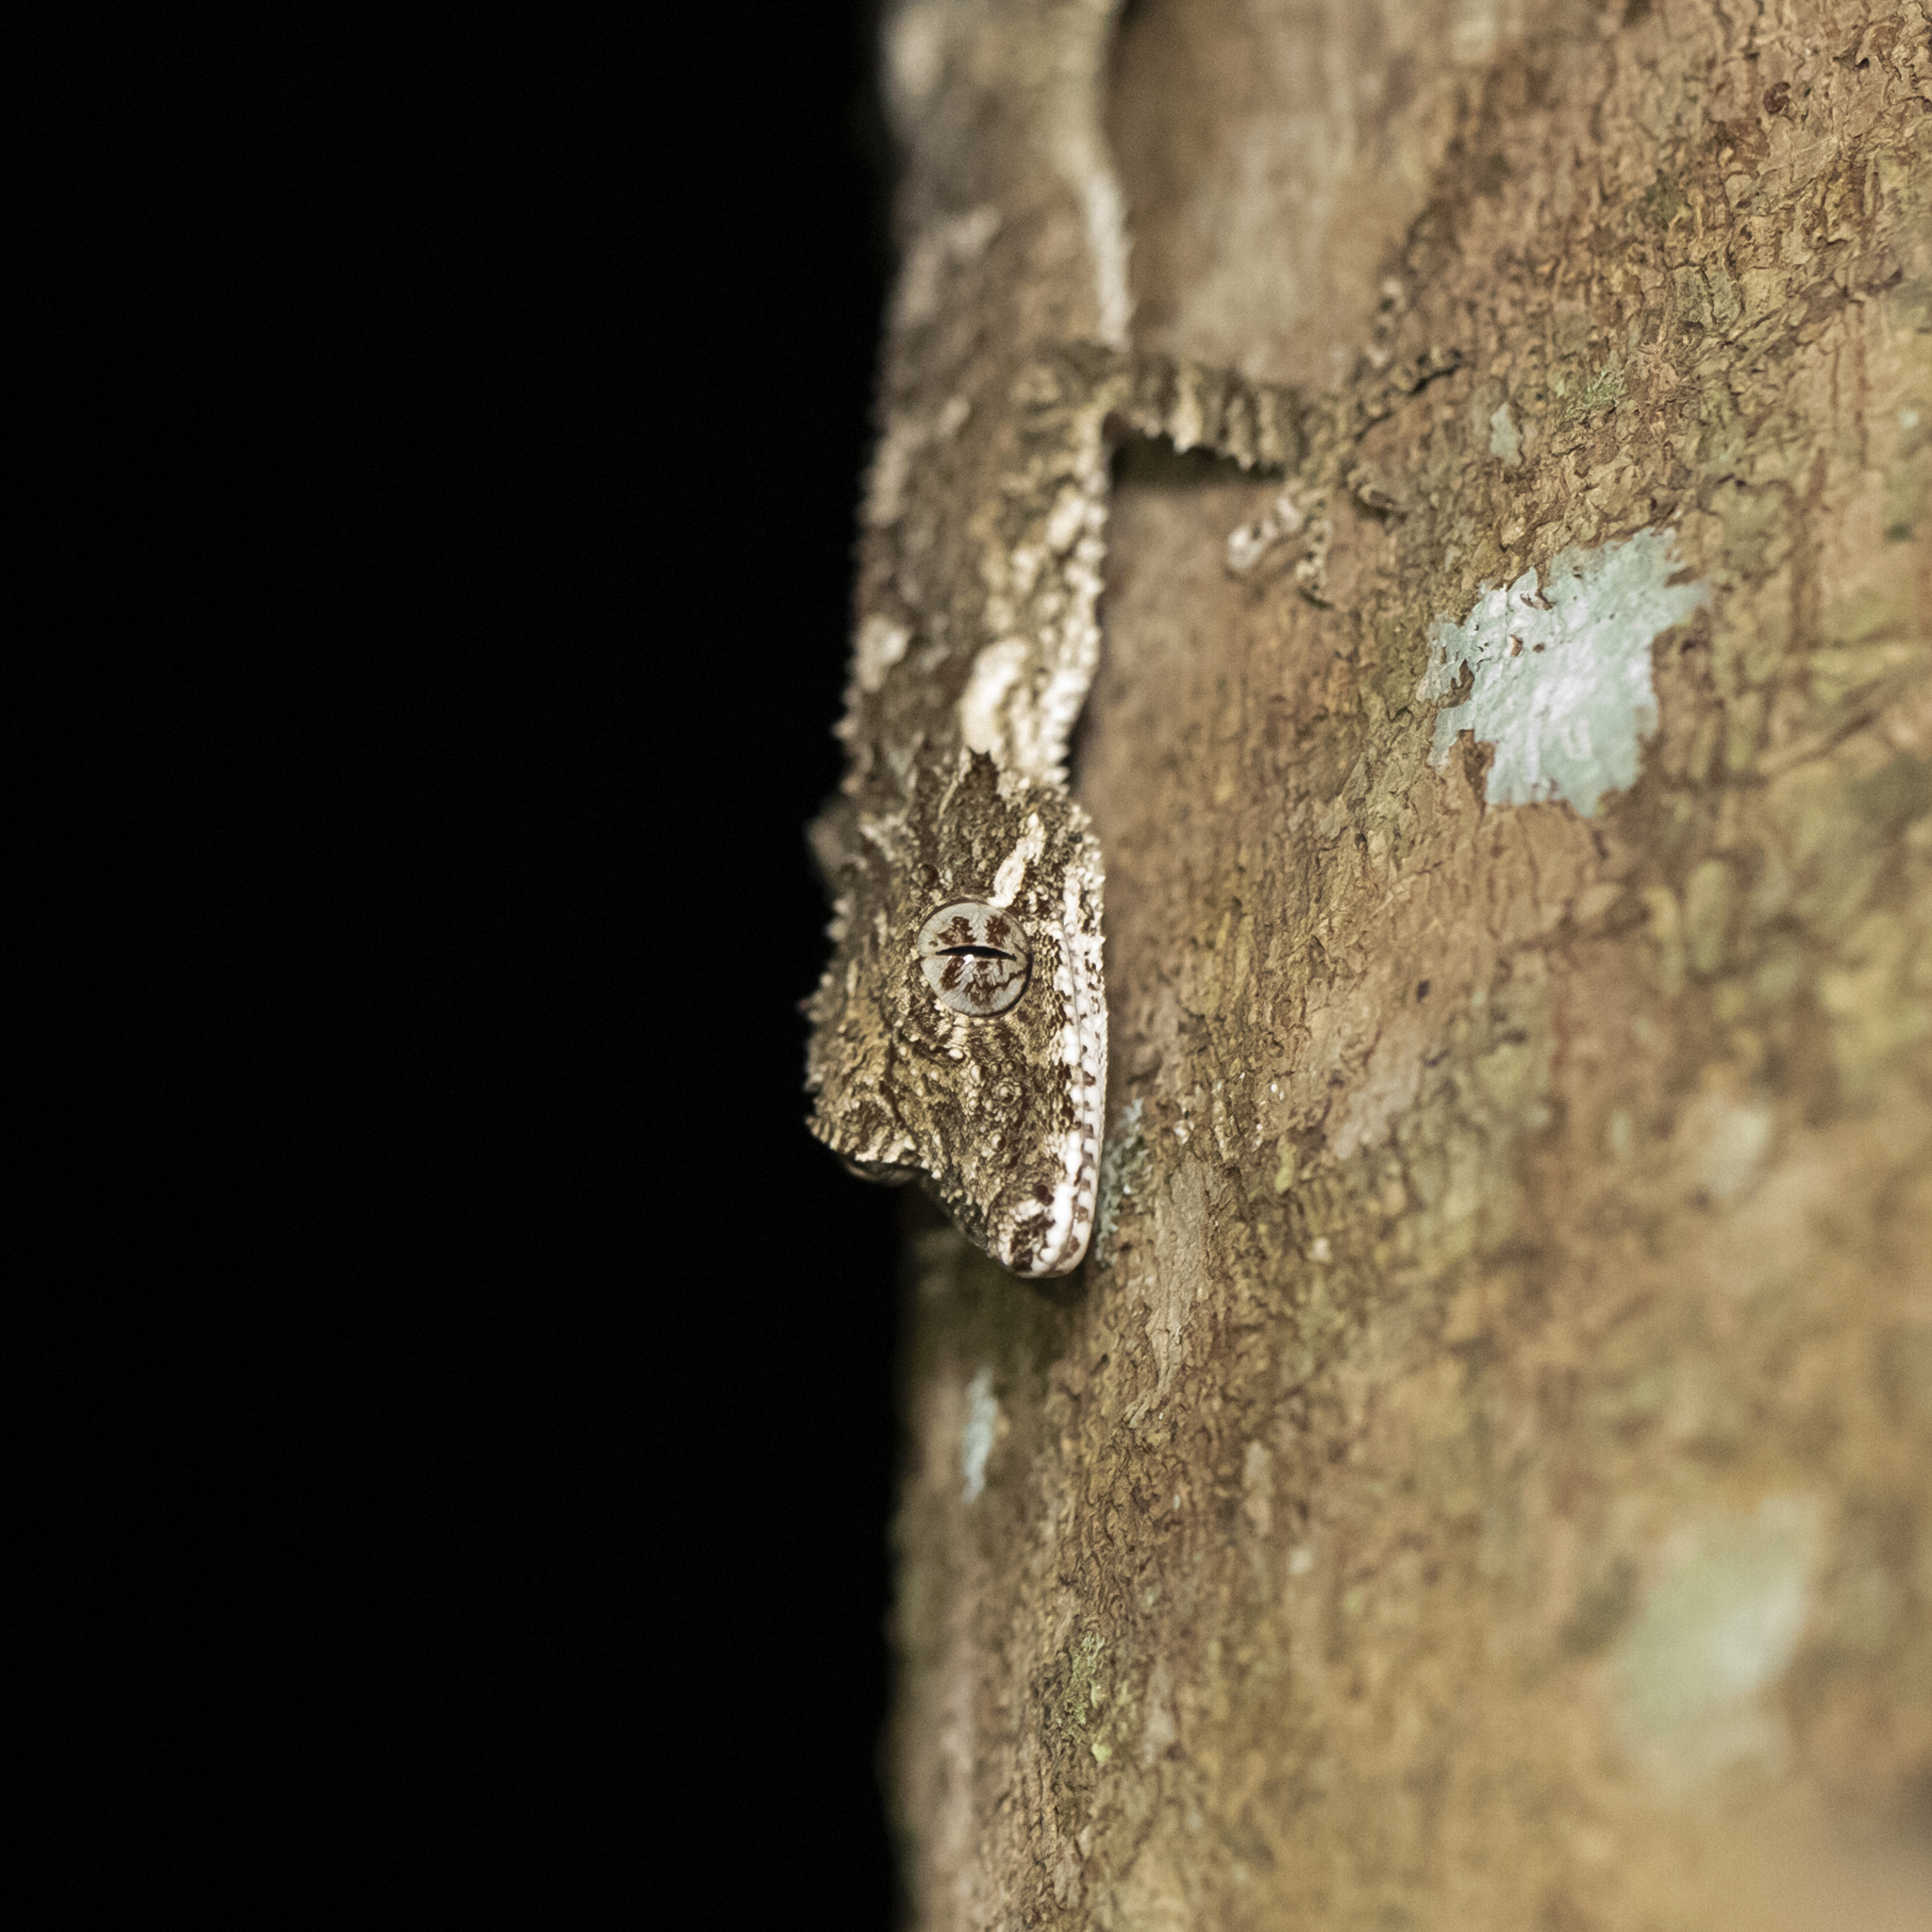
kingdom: Animalia
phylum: Chordata
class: Squamata
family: Carphodactylidae
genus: Saltuarius
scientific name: Saltuarius cornutus
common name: Leaf-tailed gecko
